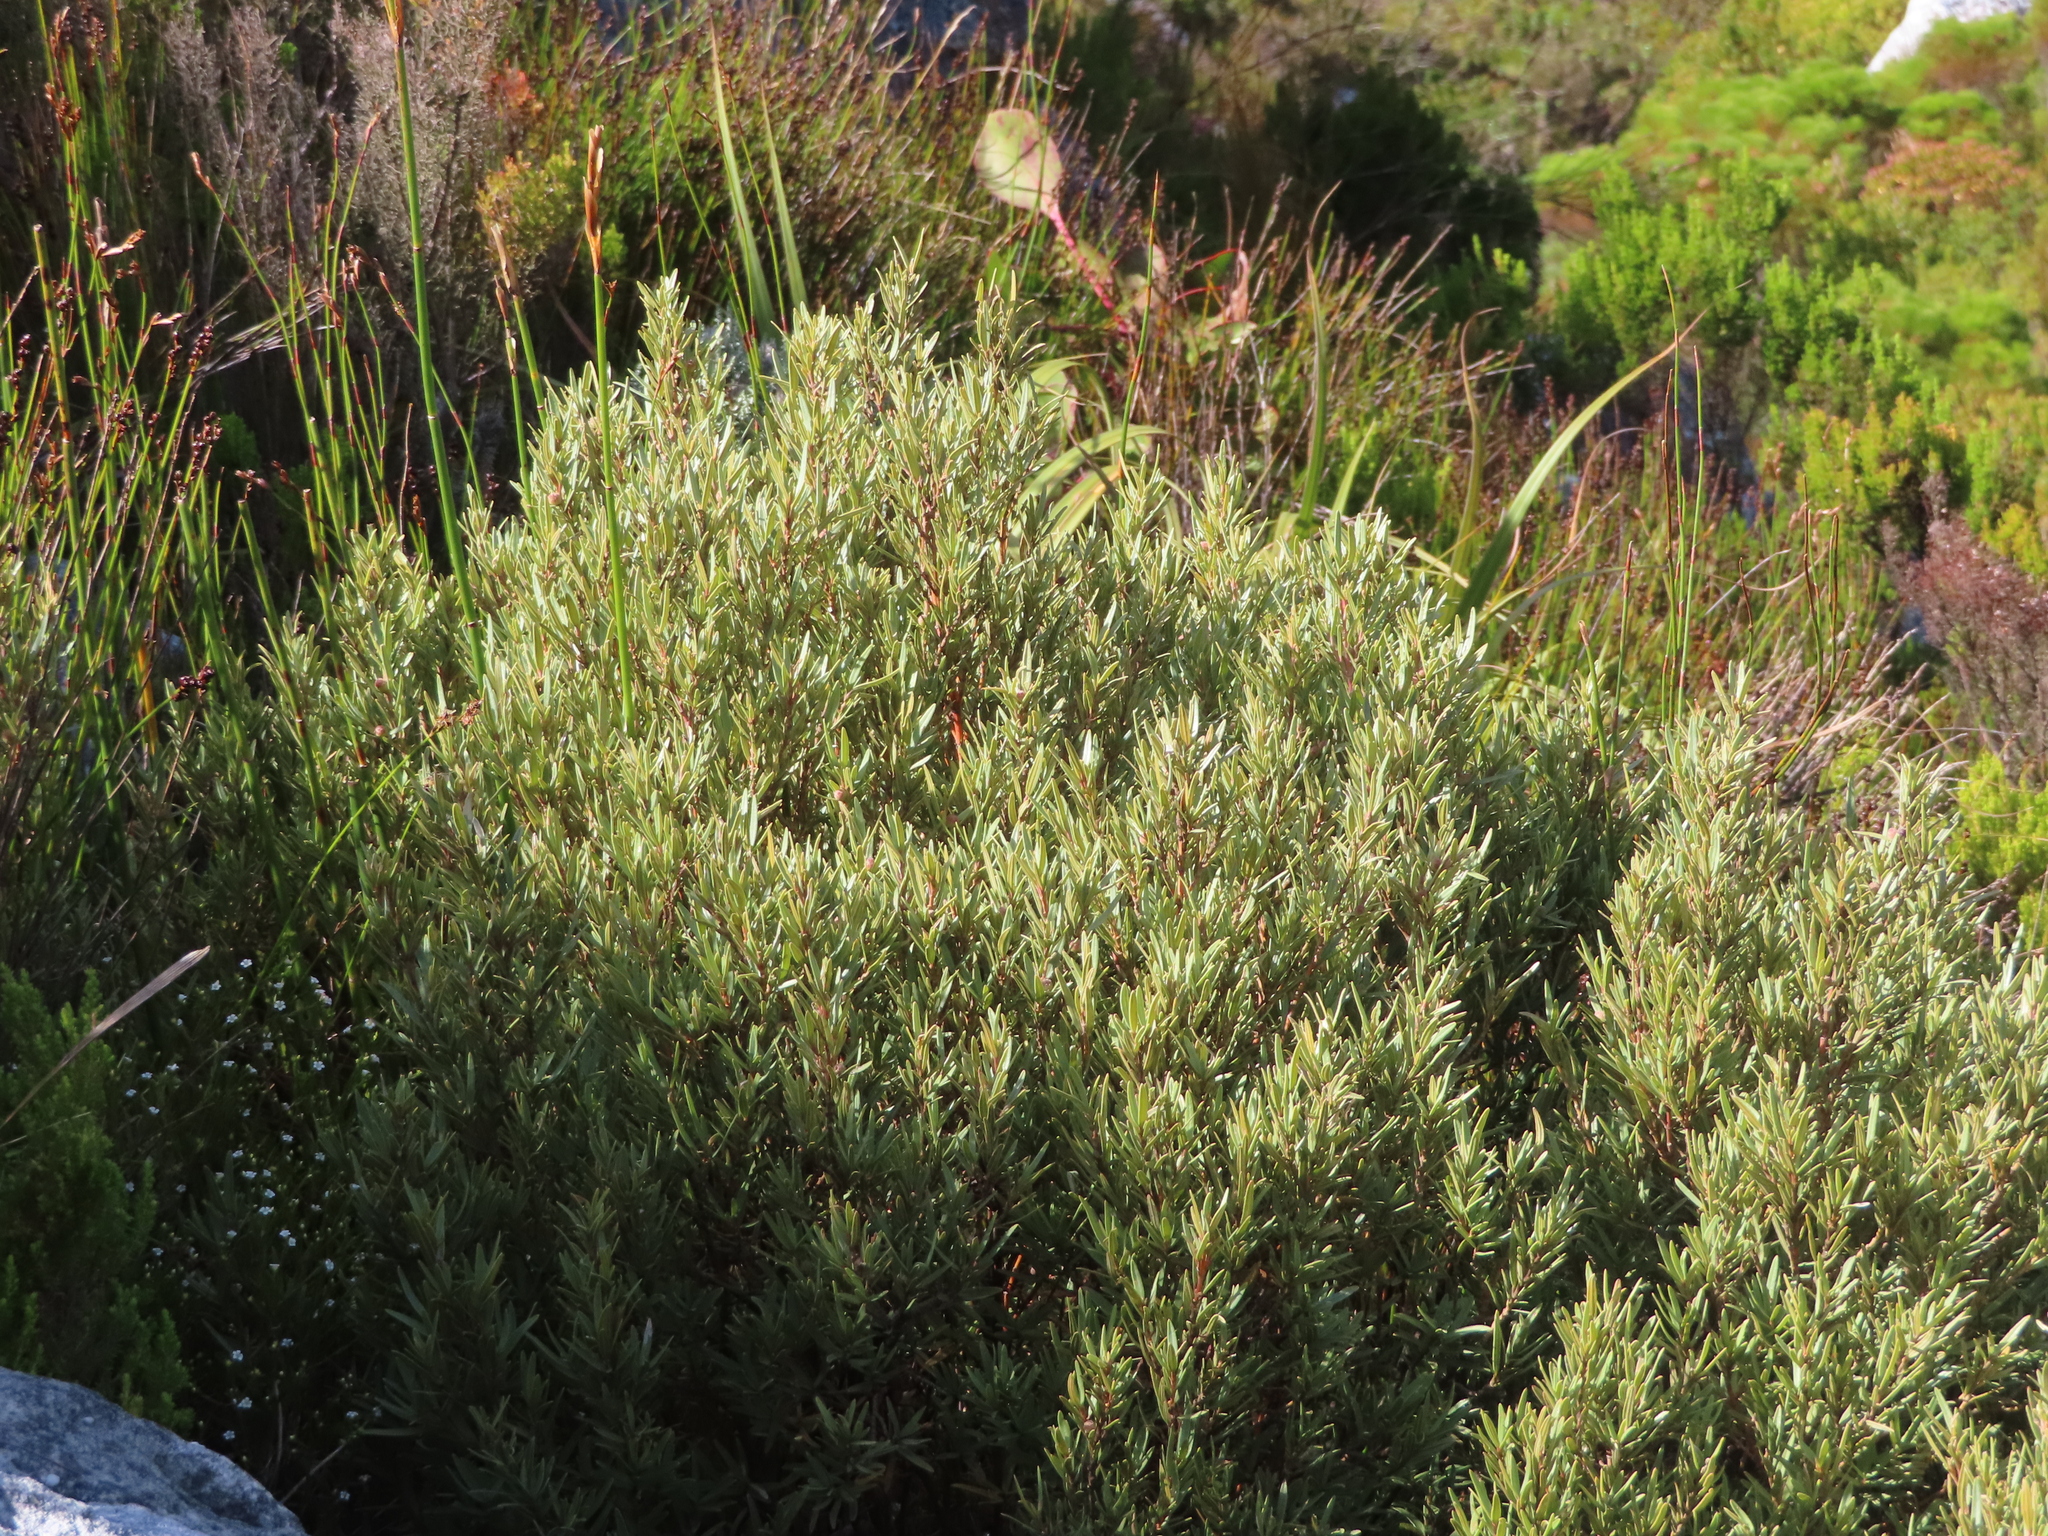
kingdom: Plantae
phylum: Tracheophyta
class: Magnoliopsida
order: Cornales
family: Grubbiaceae
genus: Grubbia
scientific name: Grubbia tomentosa
